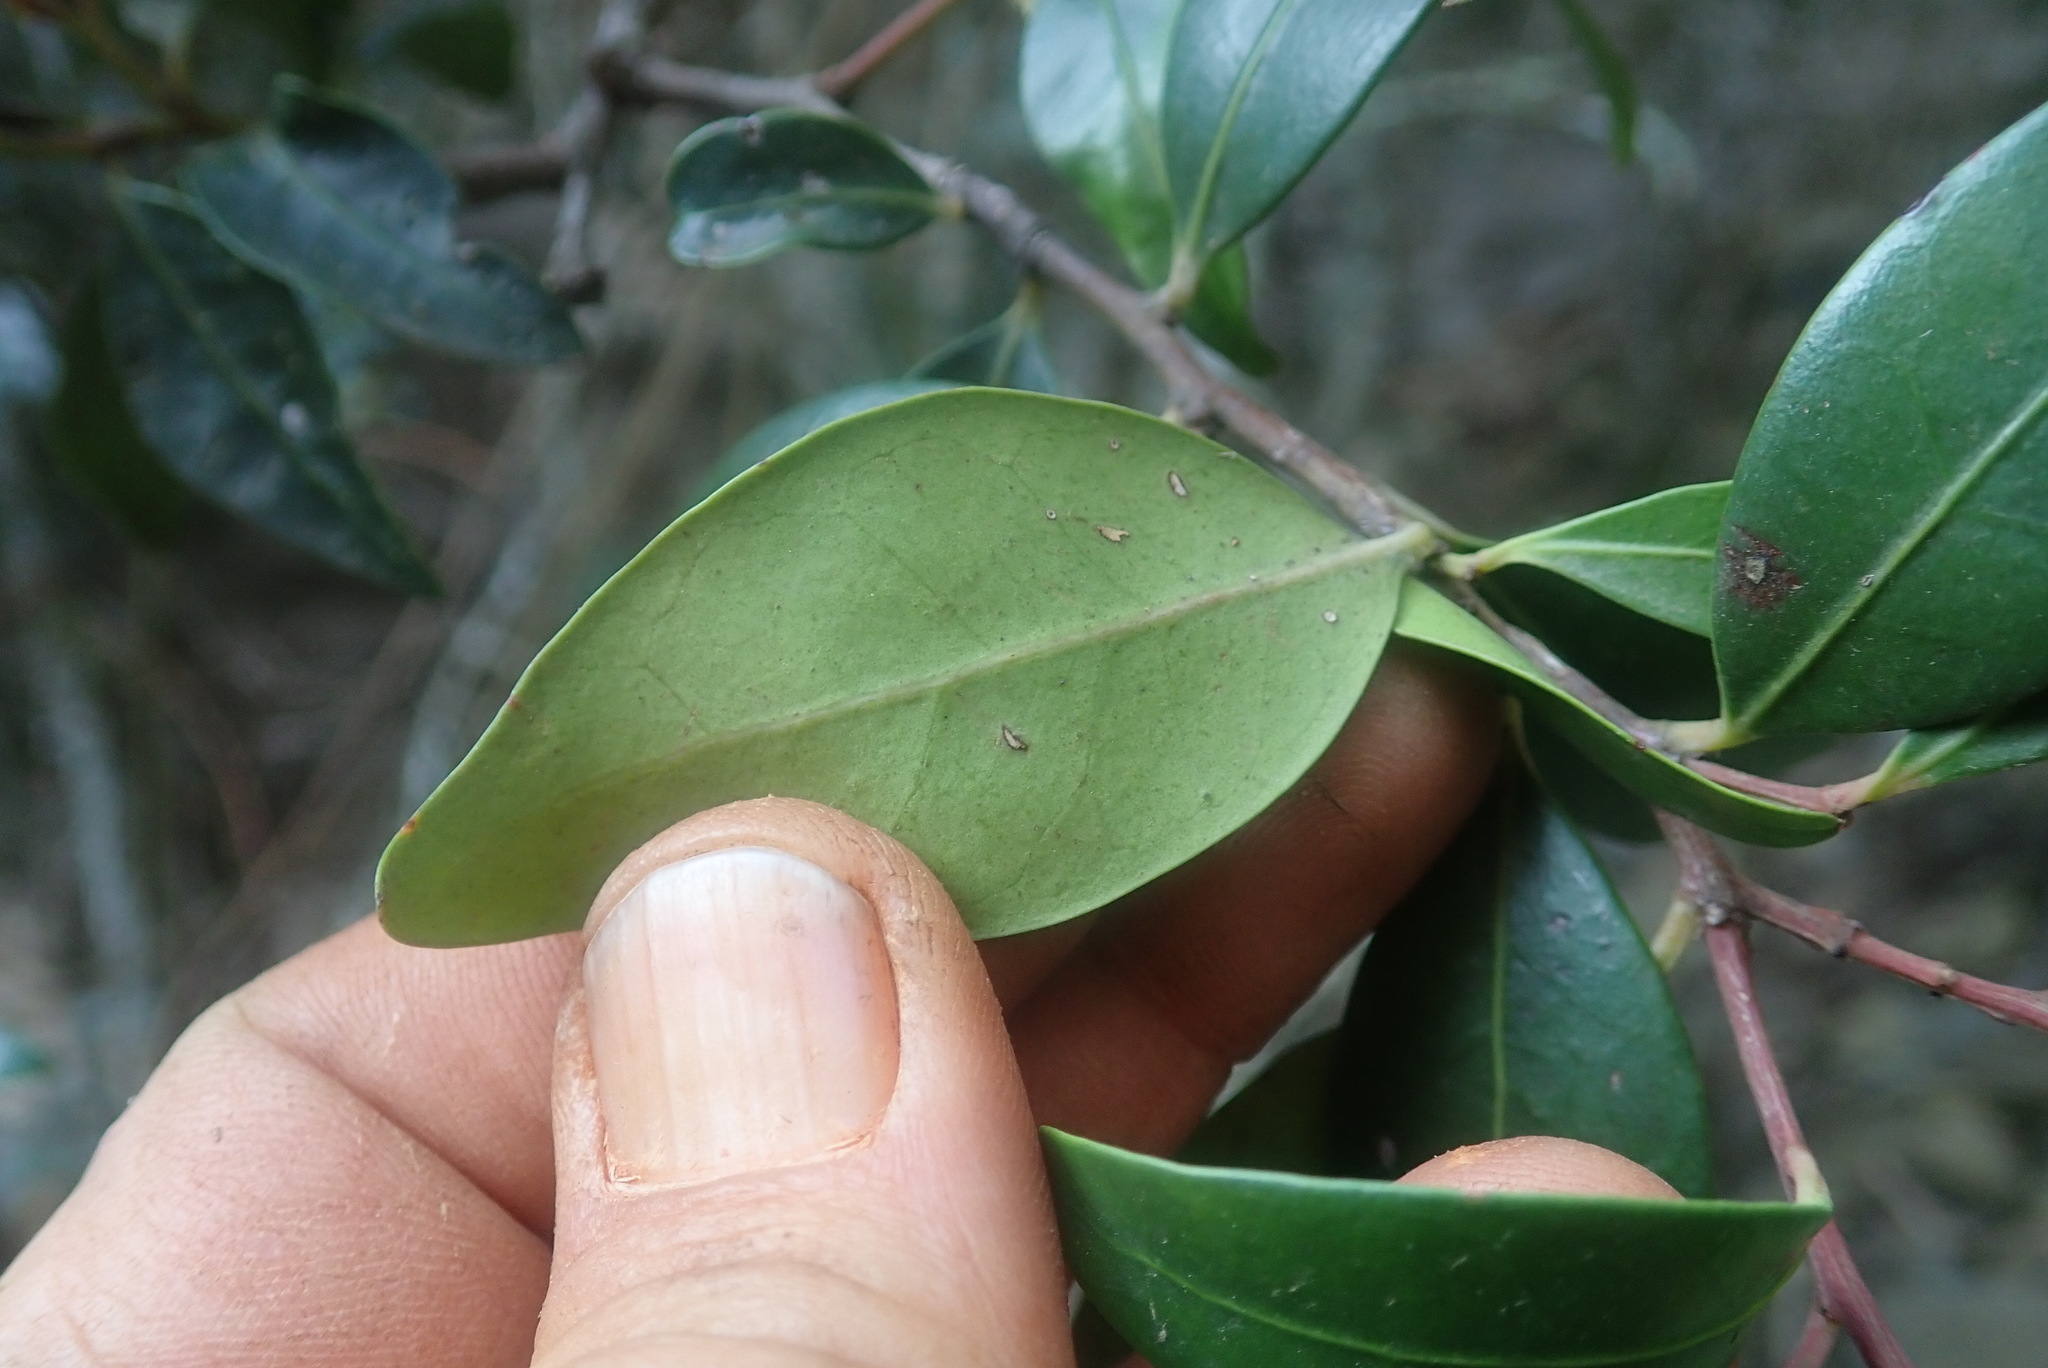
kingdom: Plantae
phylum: Tracheophyta
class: Magnoliopsida
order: Celastrales
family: Celastraceae
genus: Pterocelastrus
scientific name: Pterocelastrus echinatus
